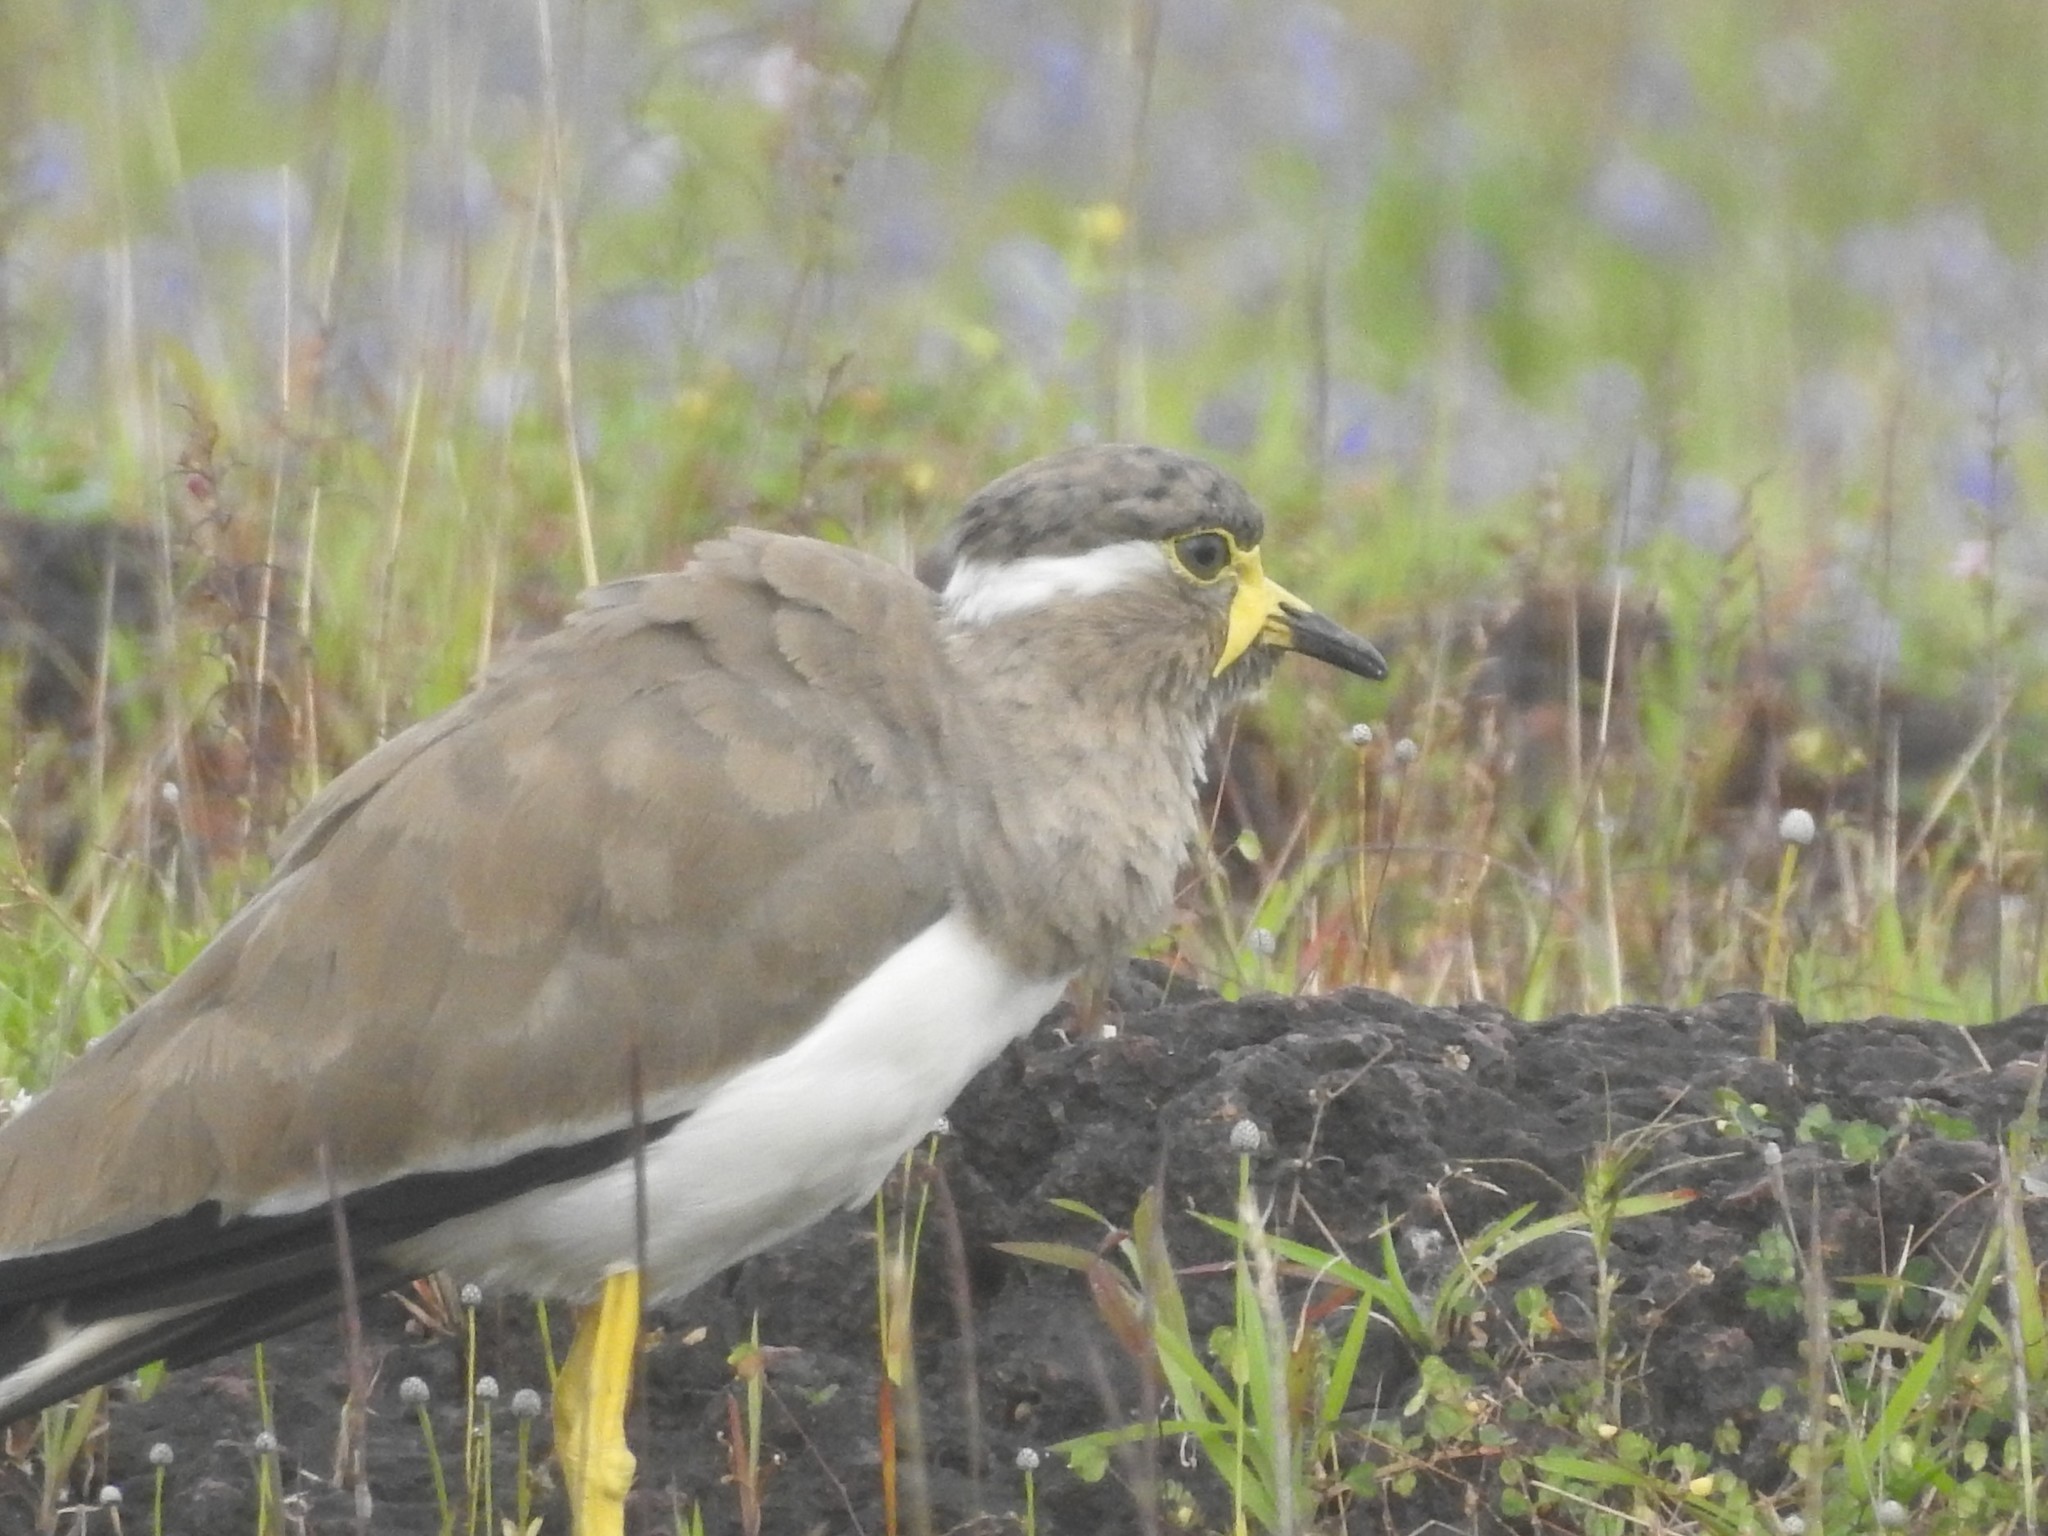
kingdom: Animalia
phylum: Chordata
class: Aves
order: Charadriiformes
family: Charadriidae
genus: Vanellus
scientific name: Vanellus malabaricus
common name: Yellow-wattled lapwing
